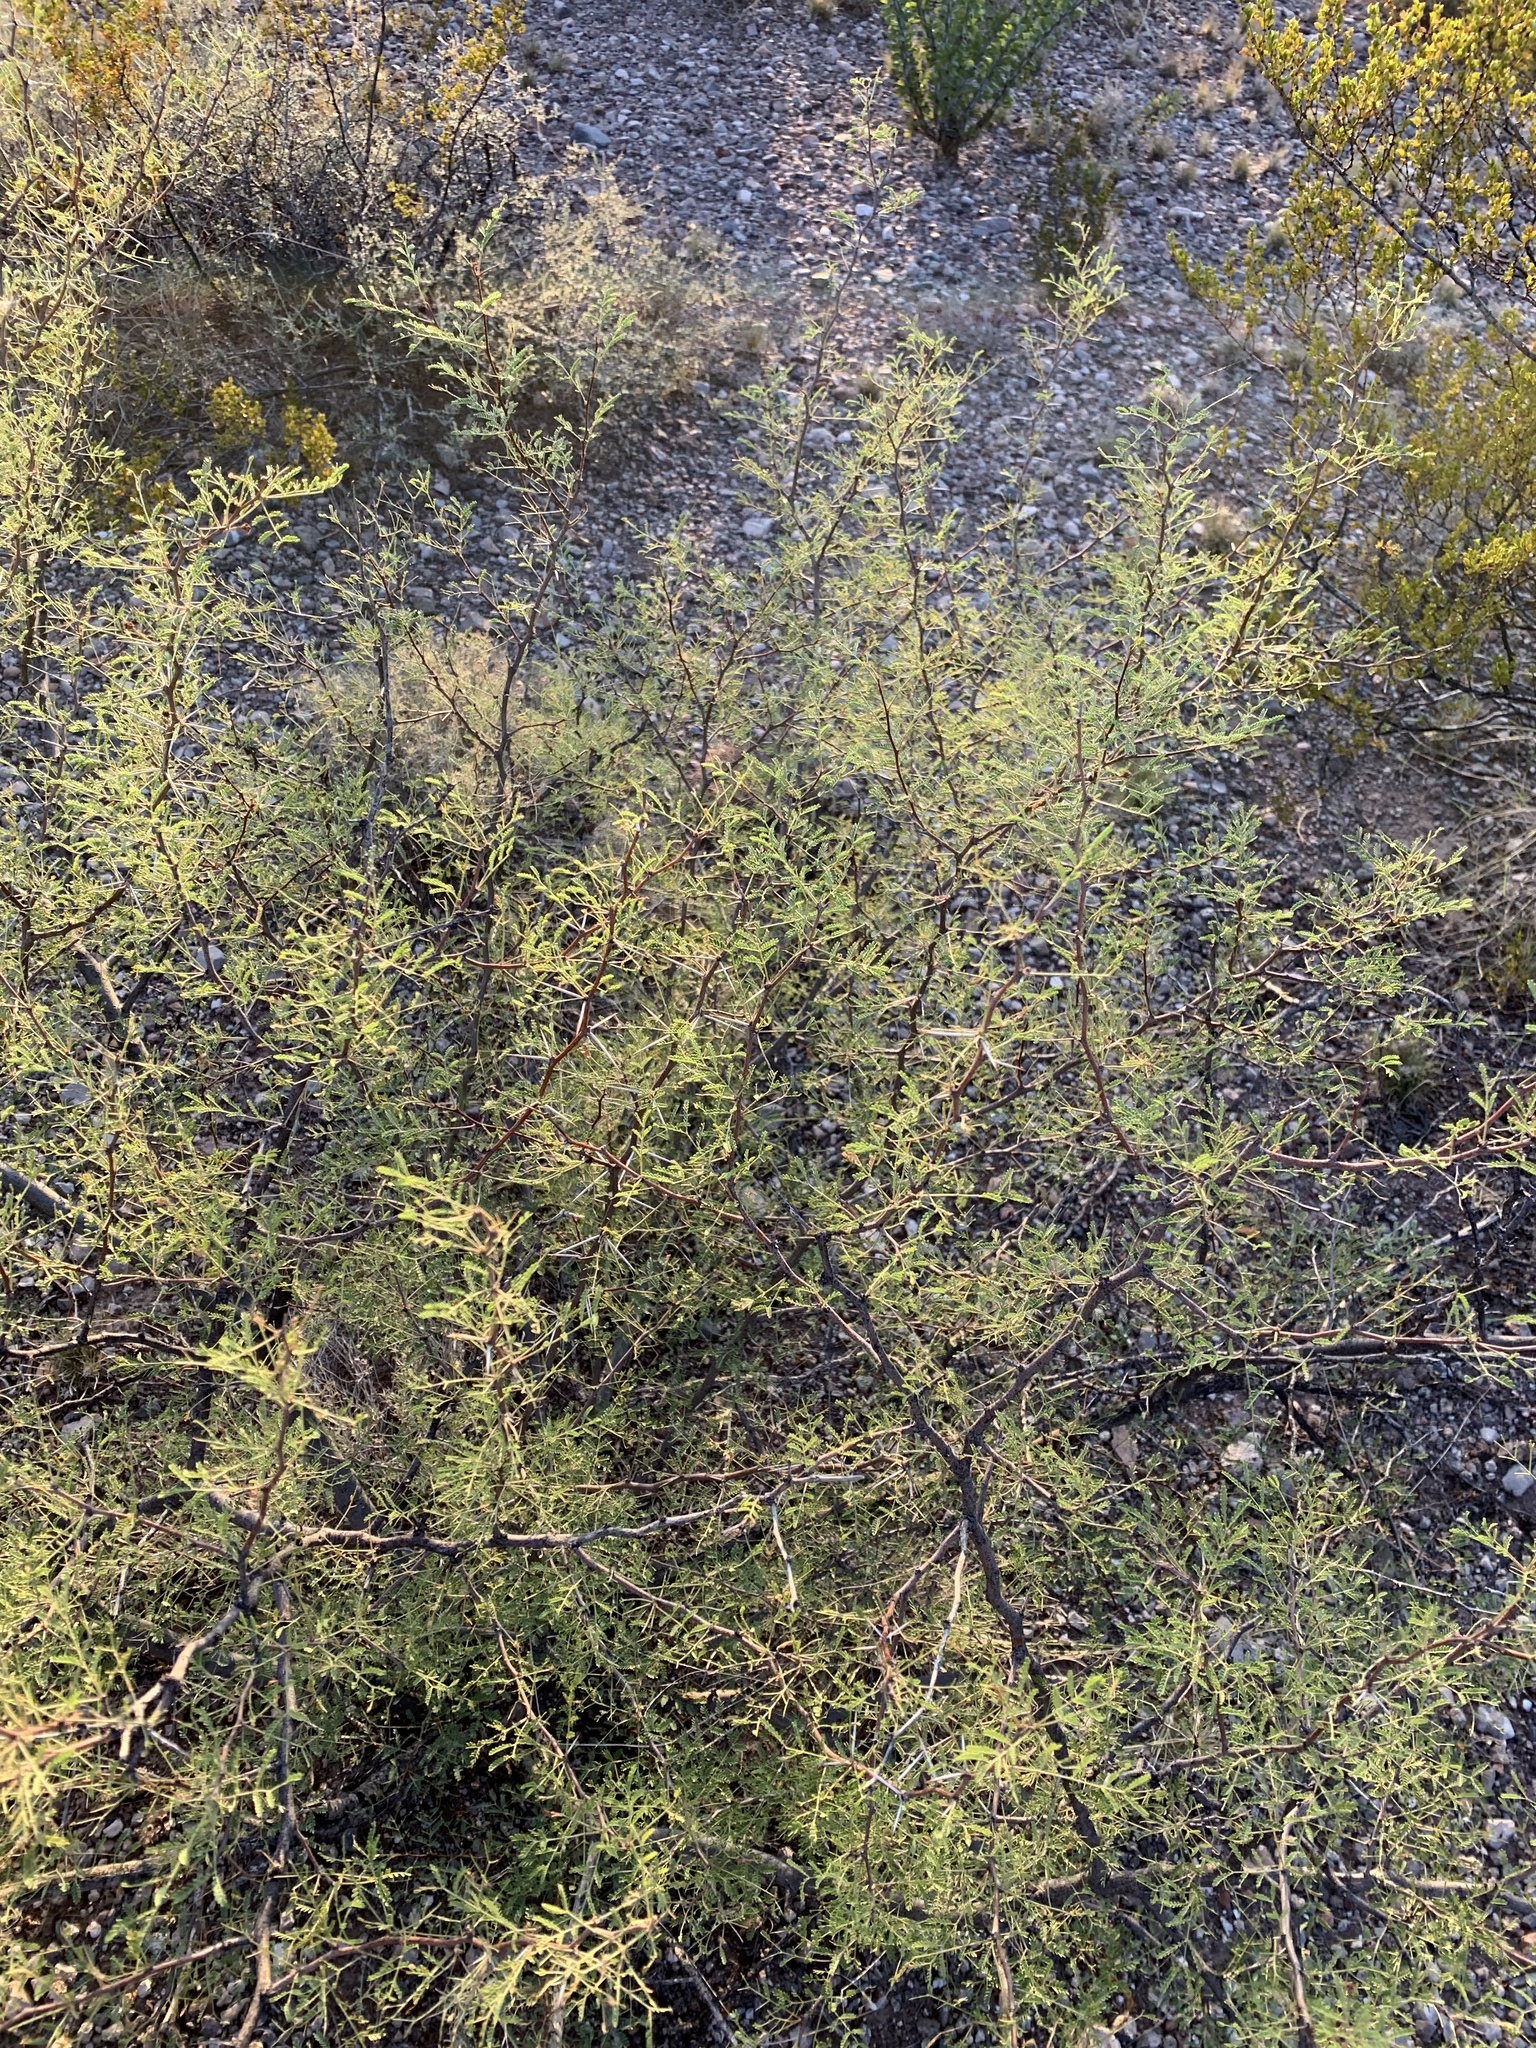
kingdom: Plantae
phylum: Tracheophyta
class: Magnoliopsida
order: Fabales
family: Fabaceae
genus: Vachellia
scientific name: Vachellia constricta
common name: Mescat acacia
